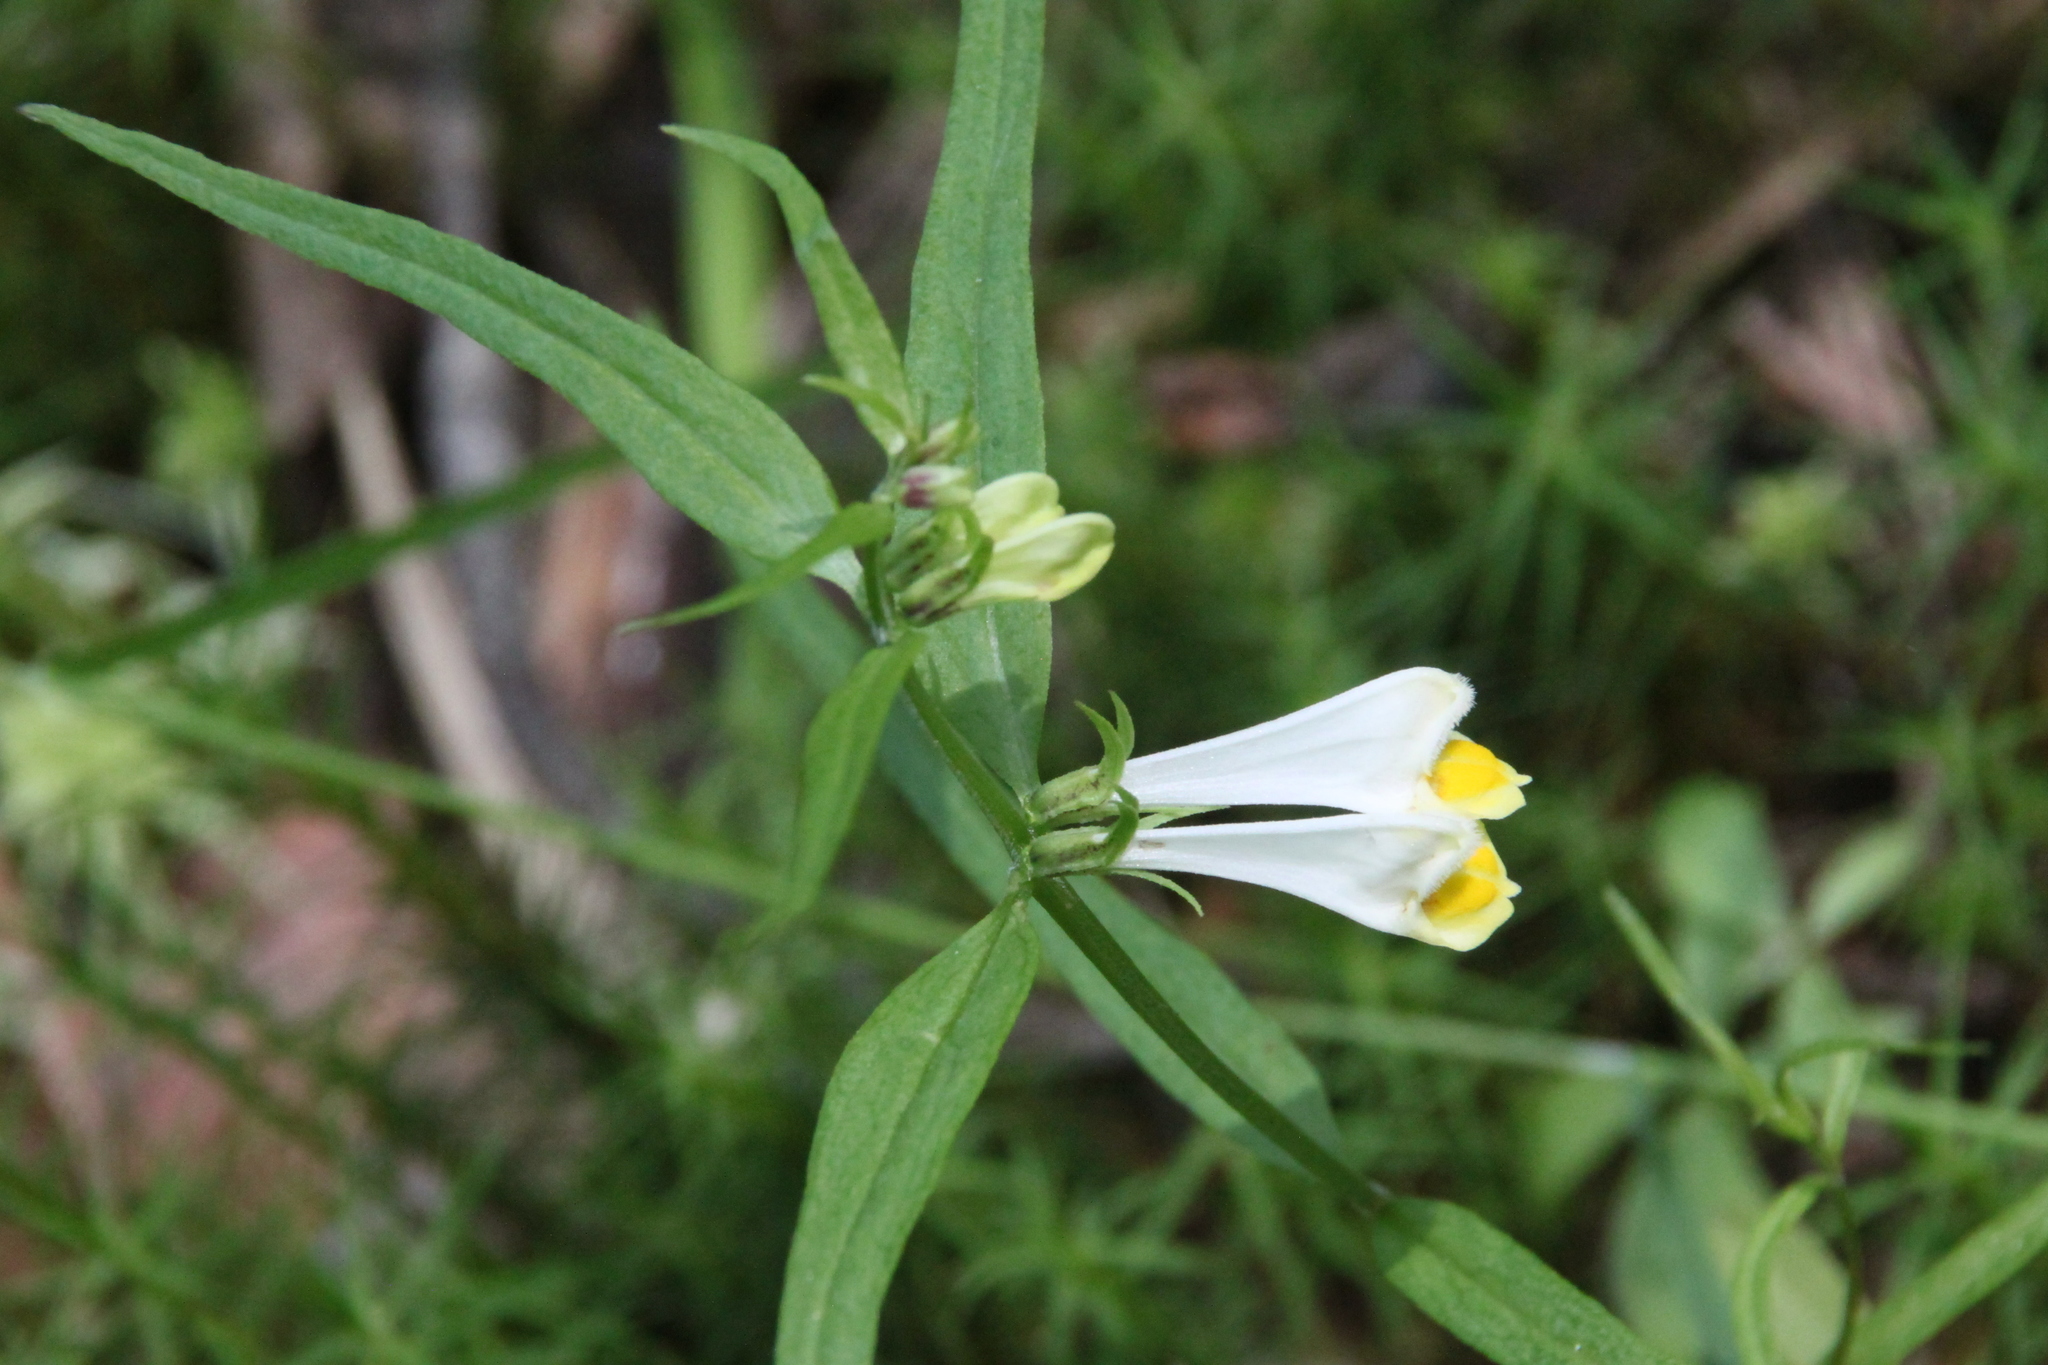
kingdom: Plantae
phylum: Tracheophyta
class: Magnoliopsida
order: Lamiales
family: Orobanchaceae
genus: Melampyrum
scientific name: Melampyrum pratense
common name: Common cow-wheat
